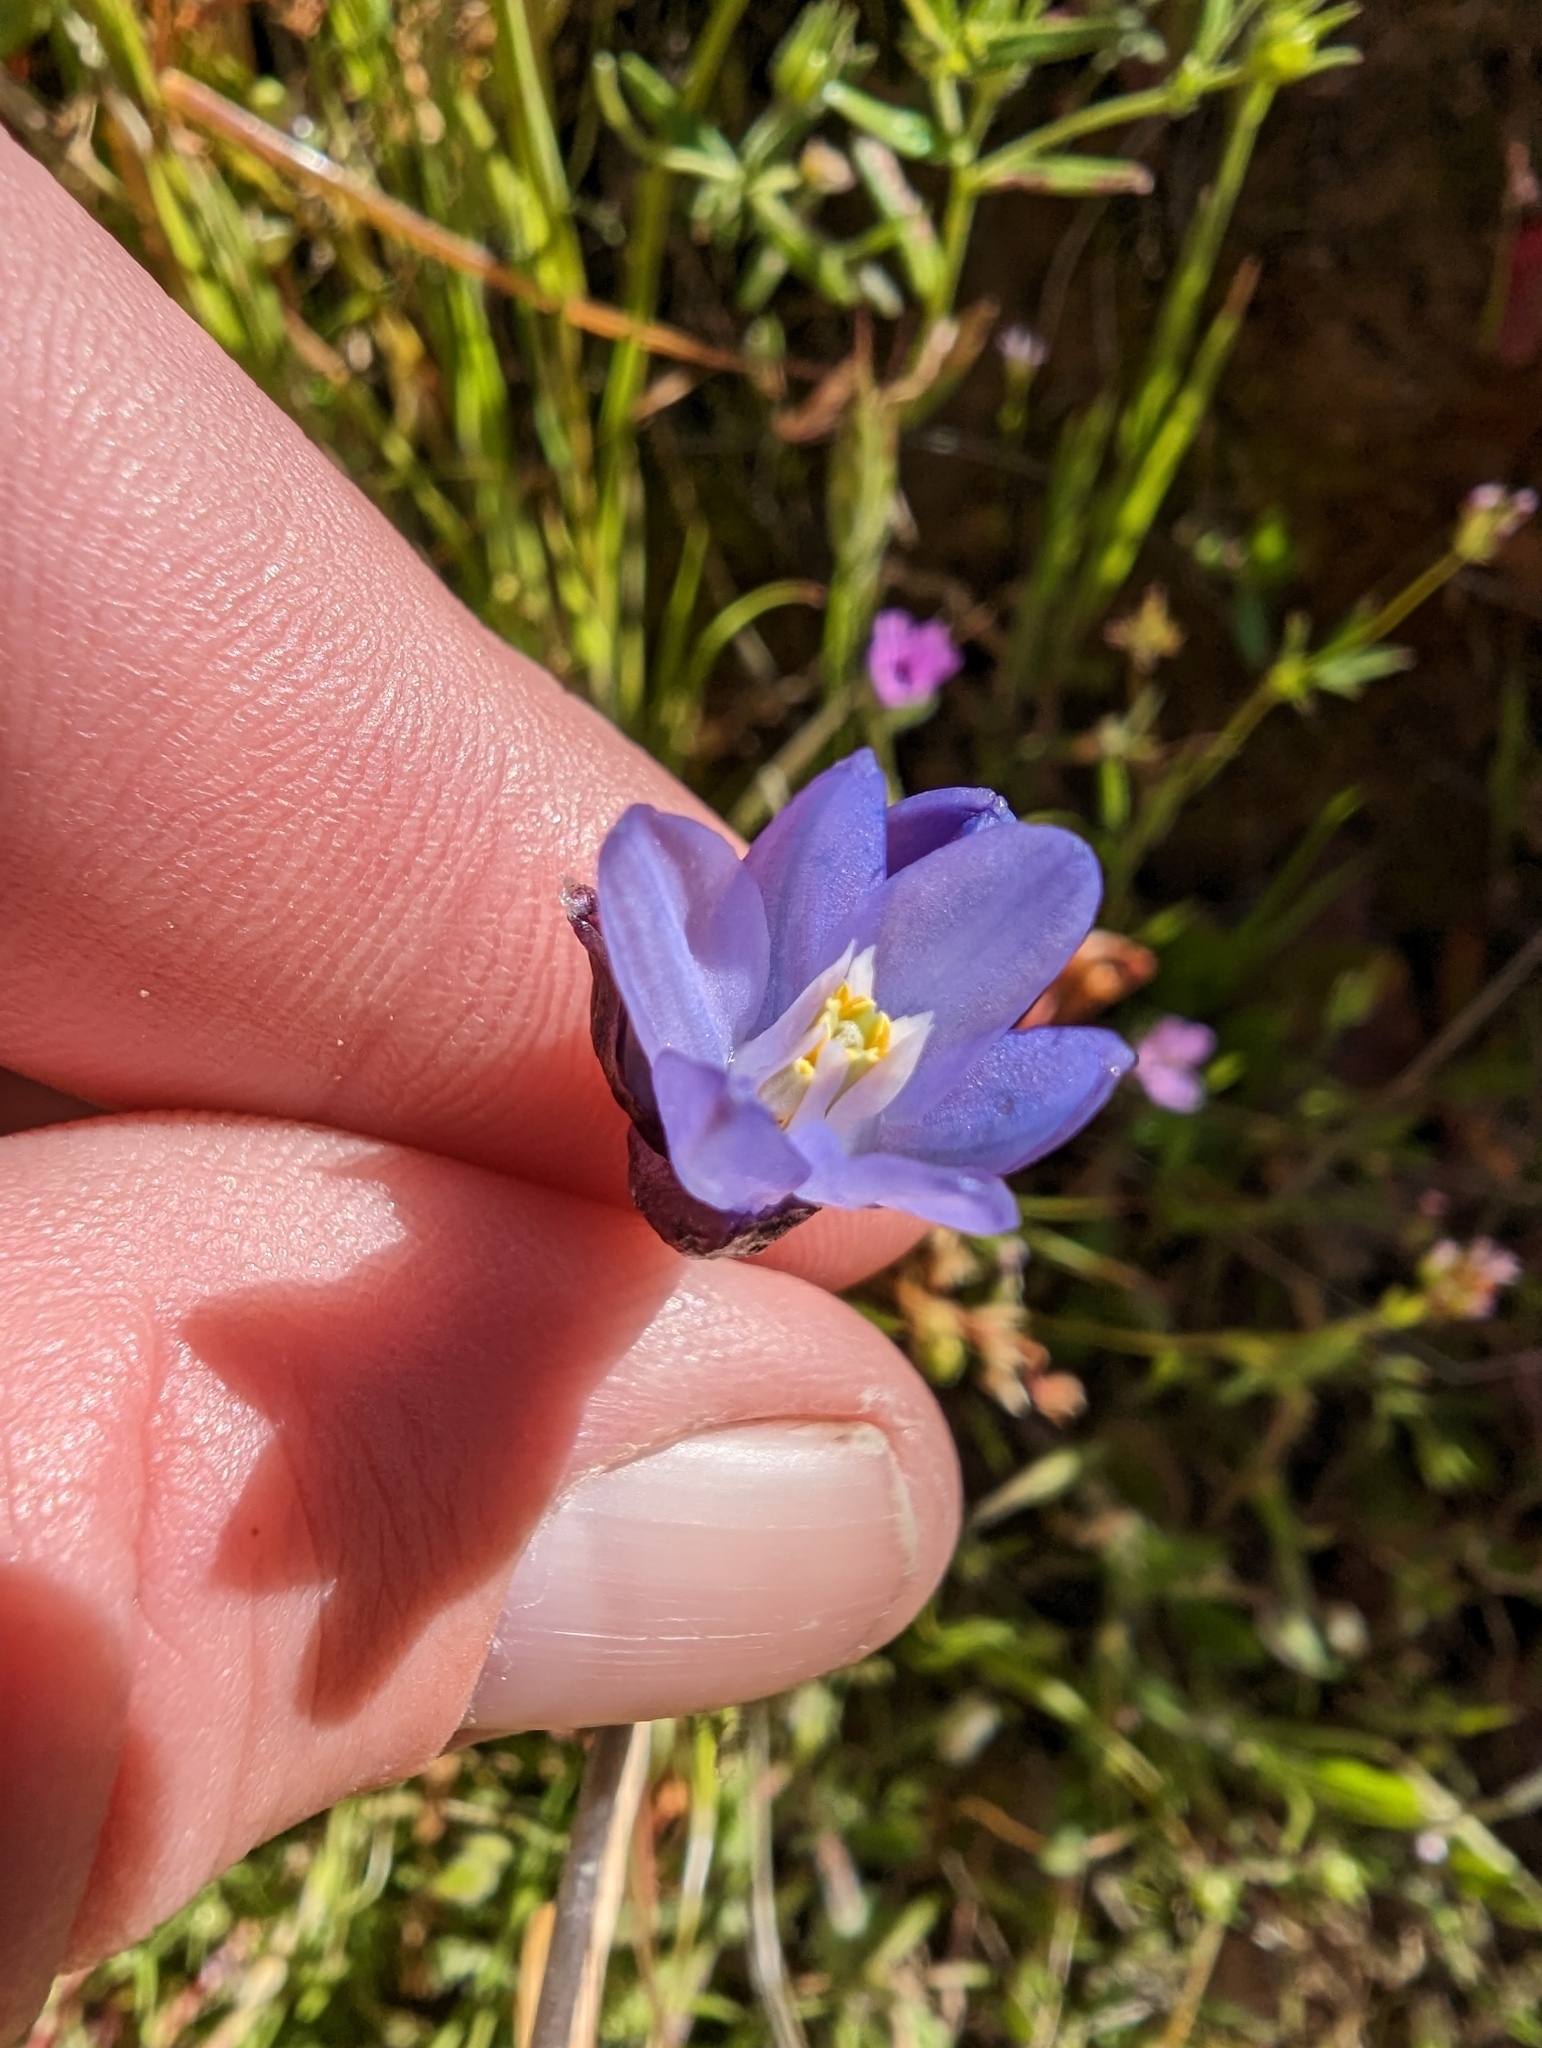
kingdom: Plantae
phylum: Tracheophyta
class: Liliopsida
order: Asparagales
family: Asparagaceae
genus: Dipterostemon
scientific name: Dipterostemon capitatus
